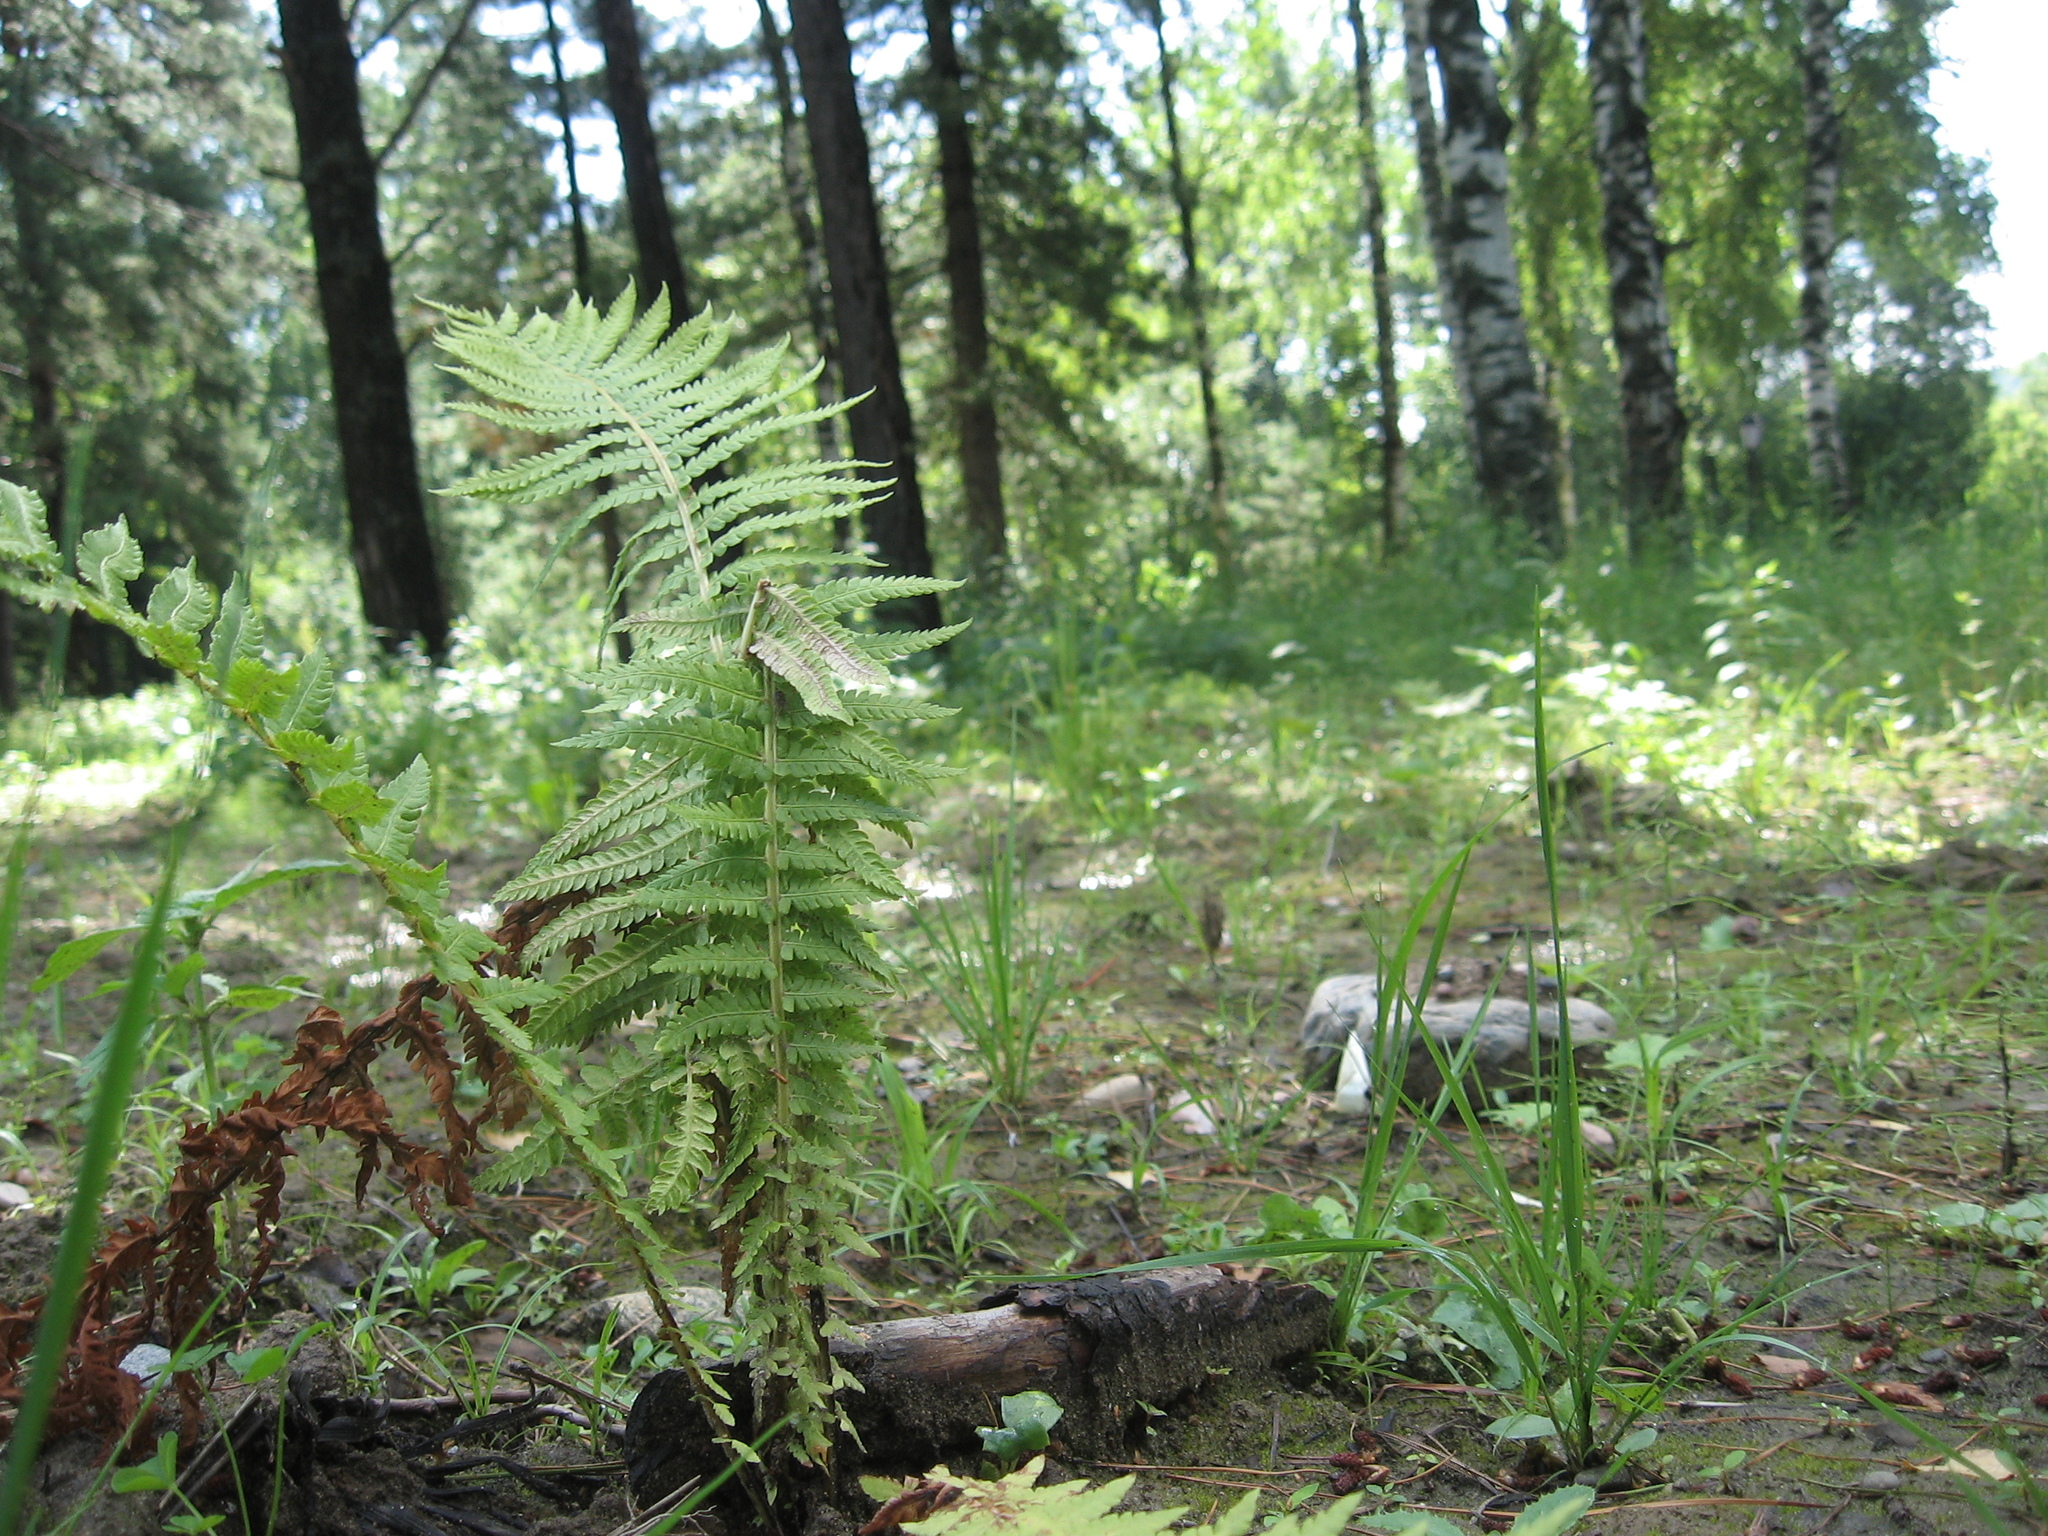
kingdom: Plantae
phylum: Tracheophyta
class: Polypodiopsida
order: Polypodiales
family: Onocleaceae
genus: Matteuccia
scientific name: Matteuccia struthiopteris
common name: Ostrich fern
